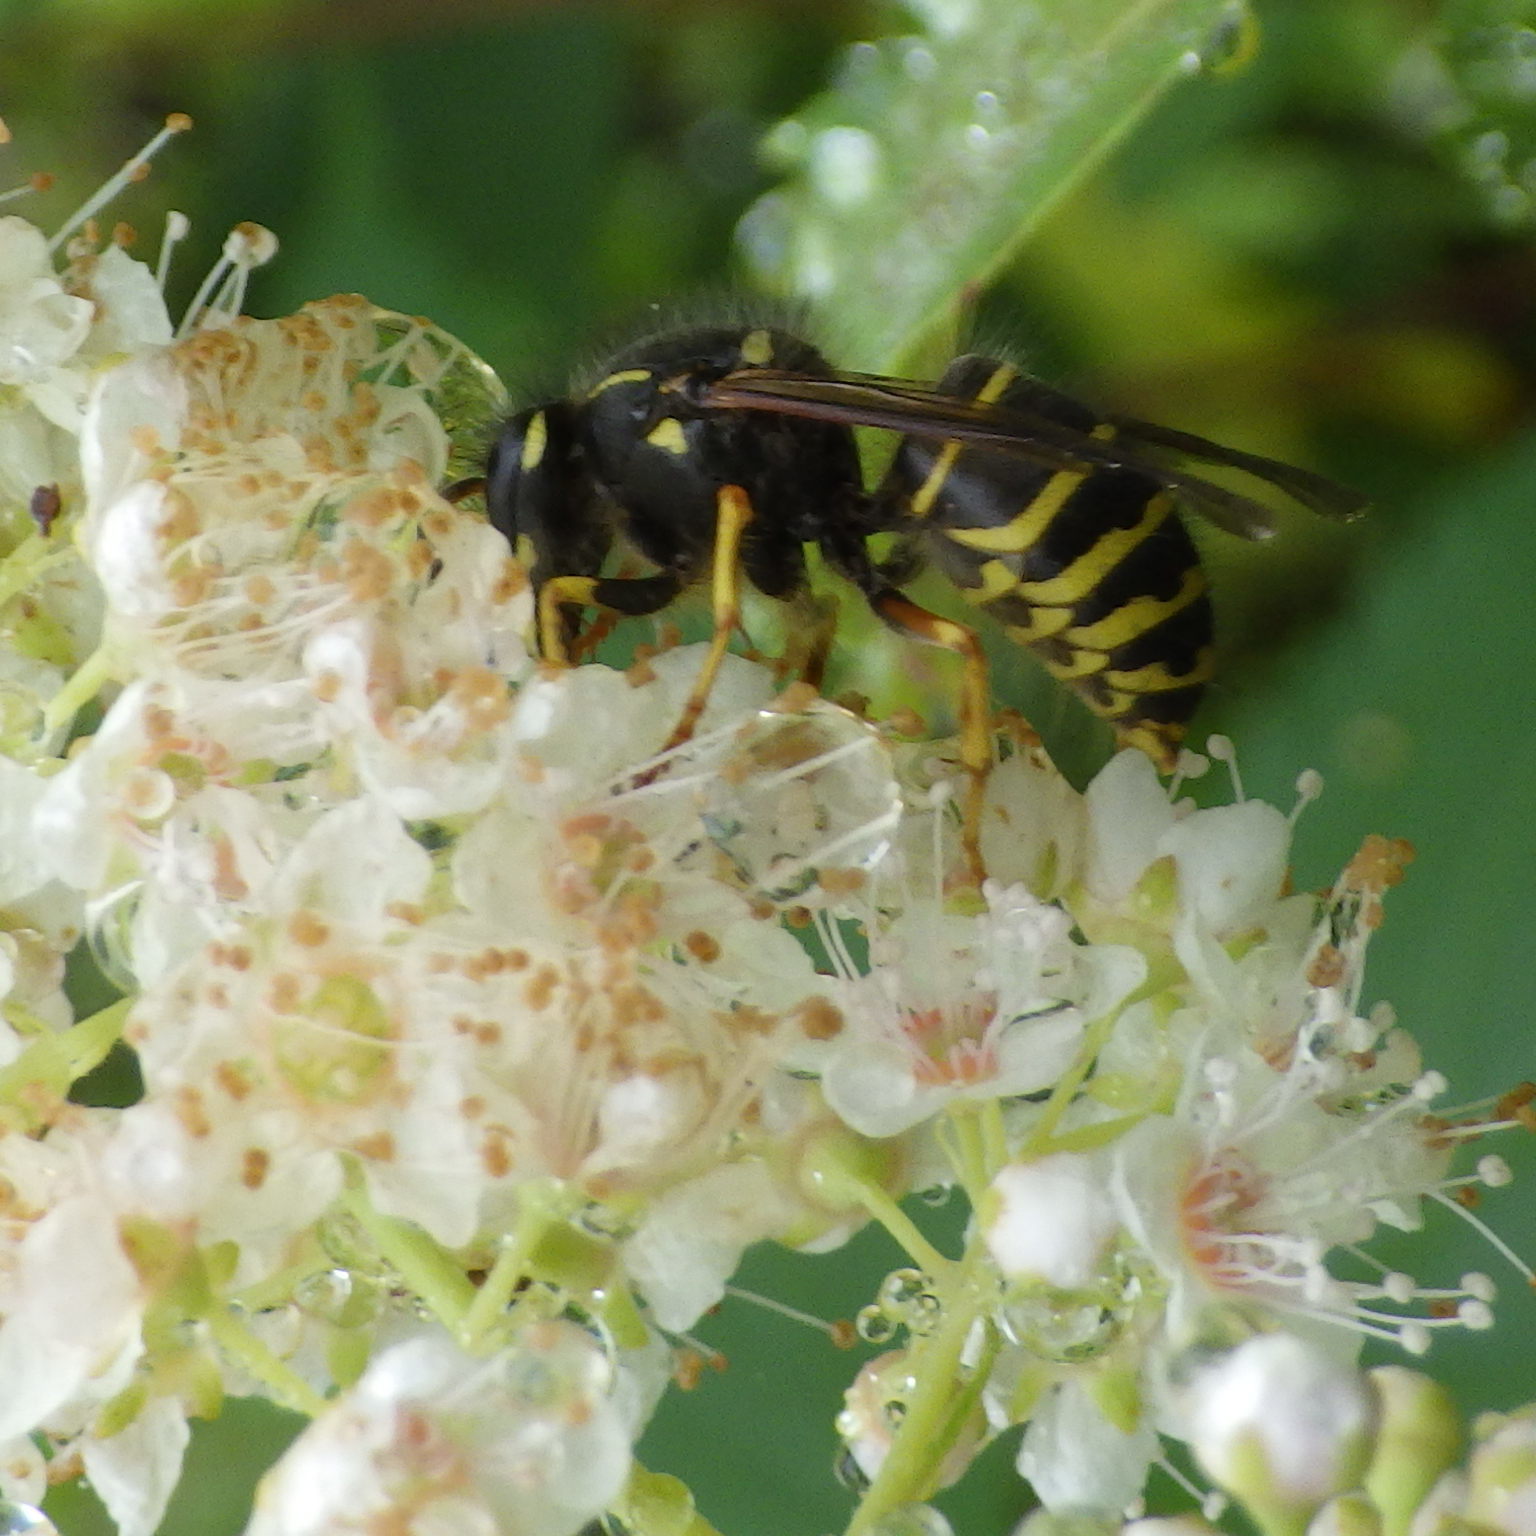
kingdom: Animalia
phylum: Arthropoda
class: Insecta
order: Hymenoptera
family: Vespidae
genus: Dolichovespula
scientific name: Dolichovespula norvegicoides
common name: Northern aerial yellowjacket
